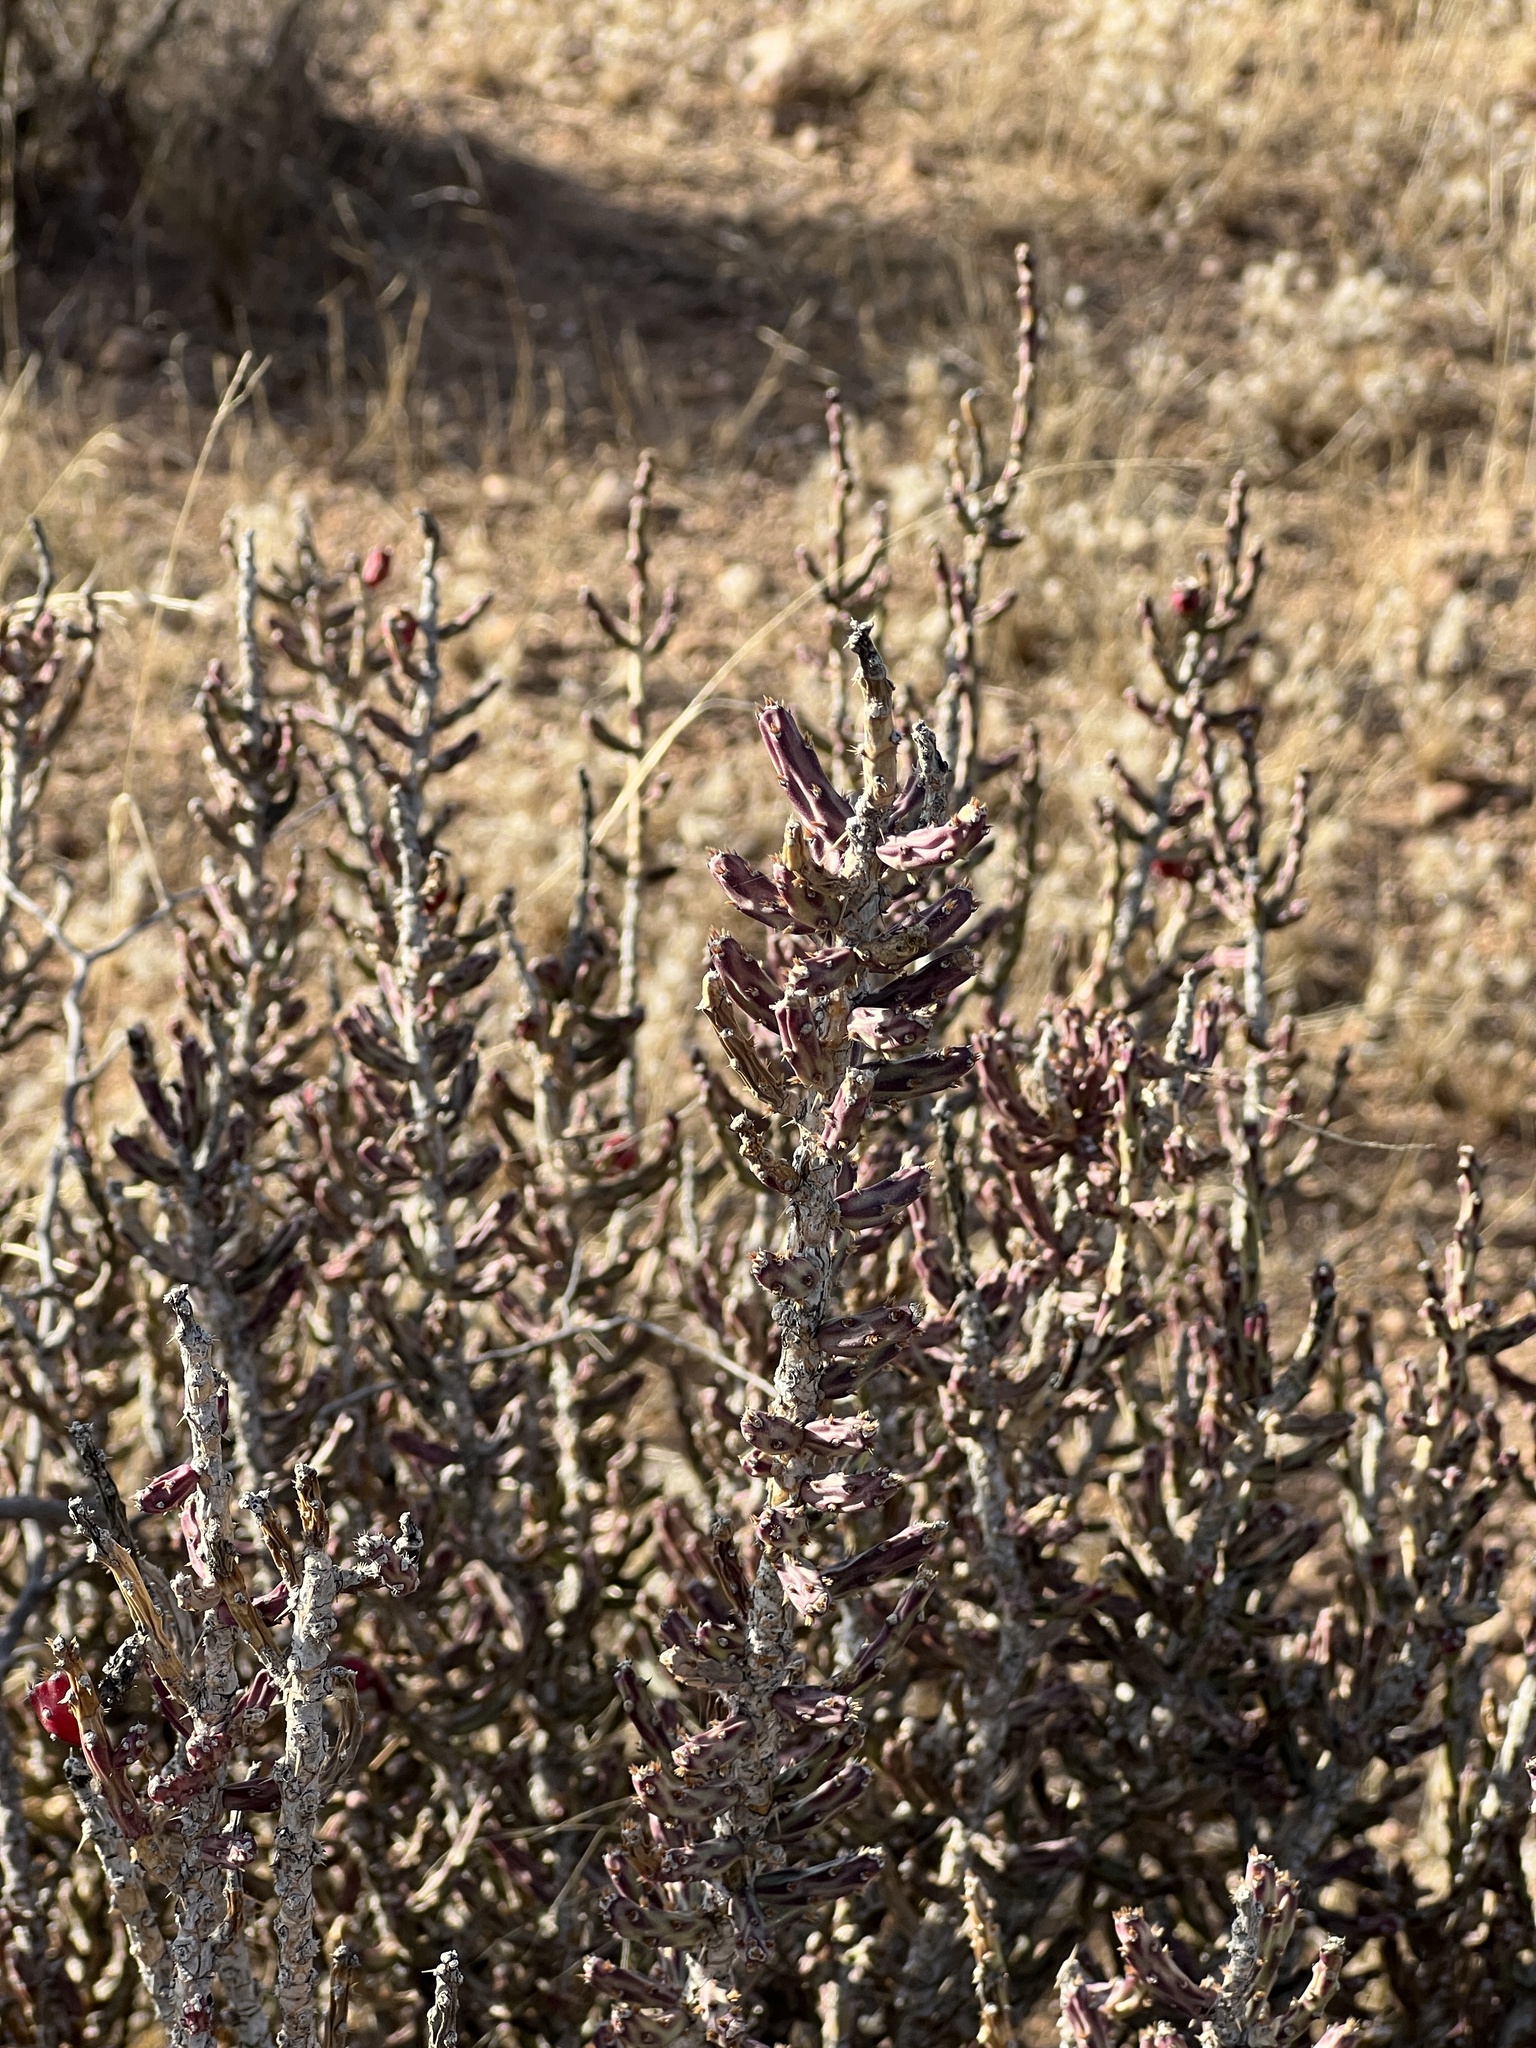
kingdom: Plantae
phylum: Tracheophyta
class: Magnoliopsida
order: Caryophyllales
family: Cactaceae
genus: Cylindropuntia
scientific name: Cylindropuntia leptocaulis
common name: Christmas cactus
